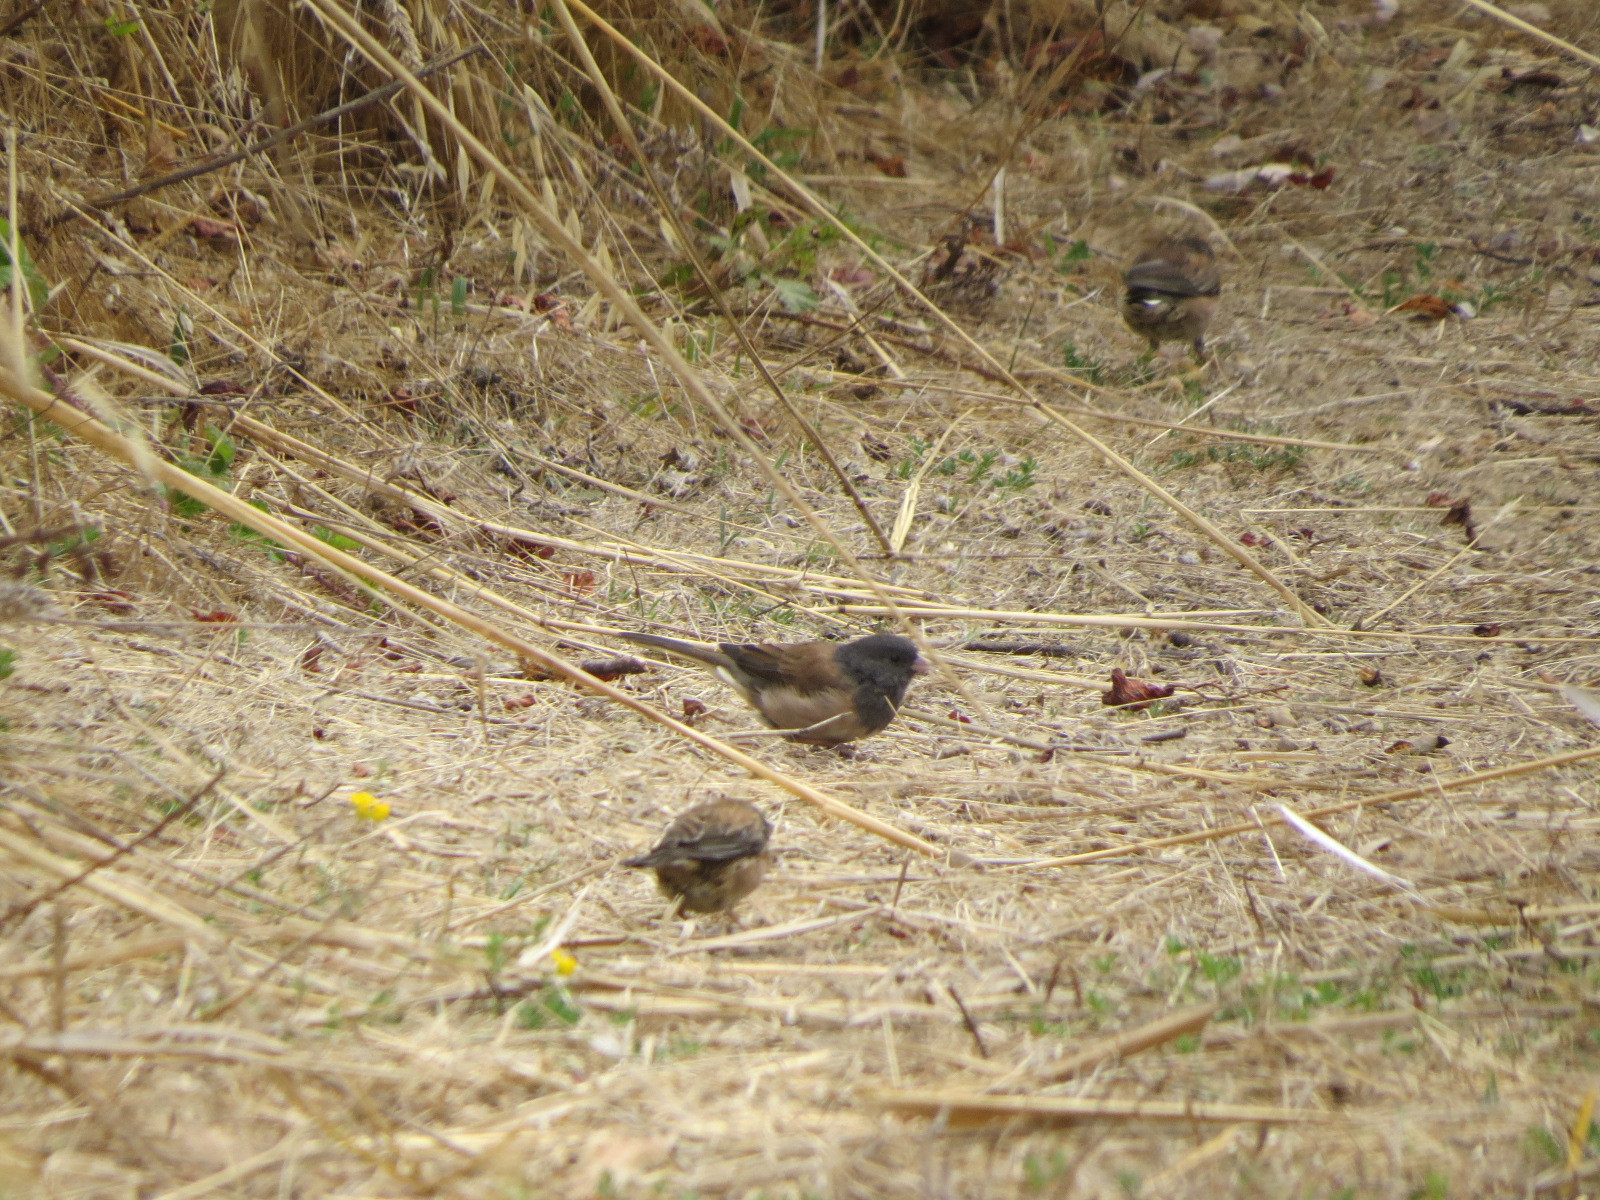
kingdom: Animalia
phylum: Chordata
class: Aves
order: Passeriformes
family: Passerellidae
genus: Junco
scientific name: Junco hyemalis
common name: Dark-eyed junco
